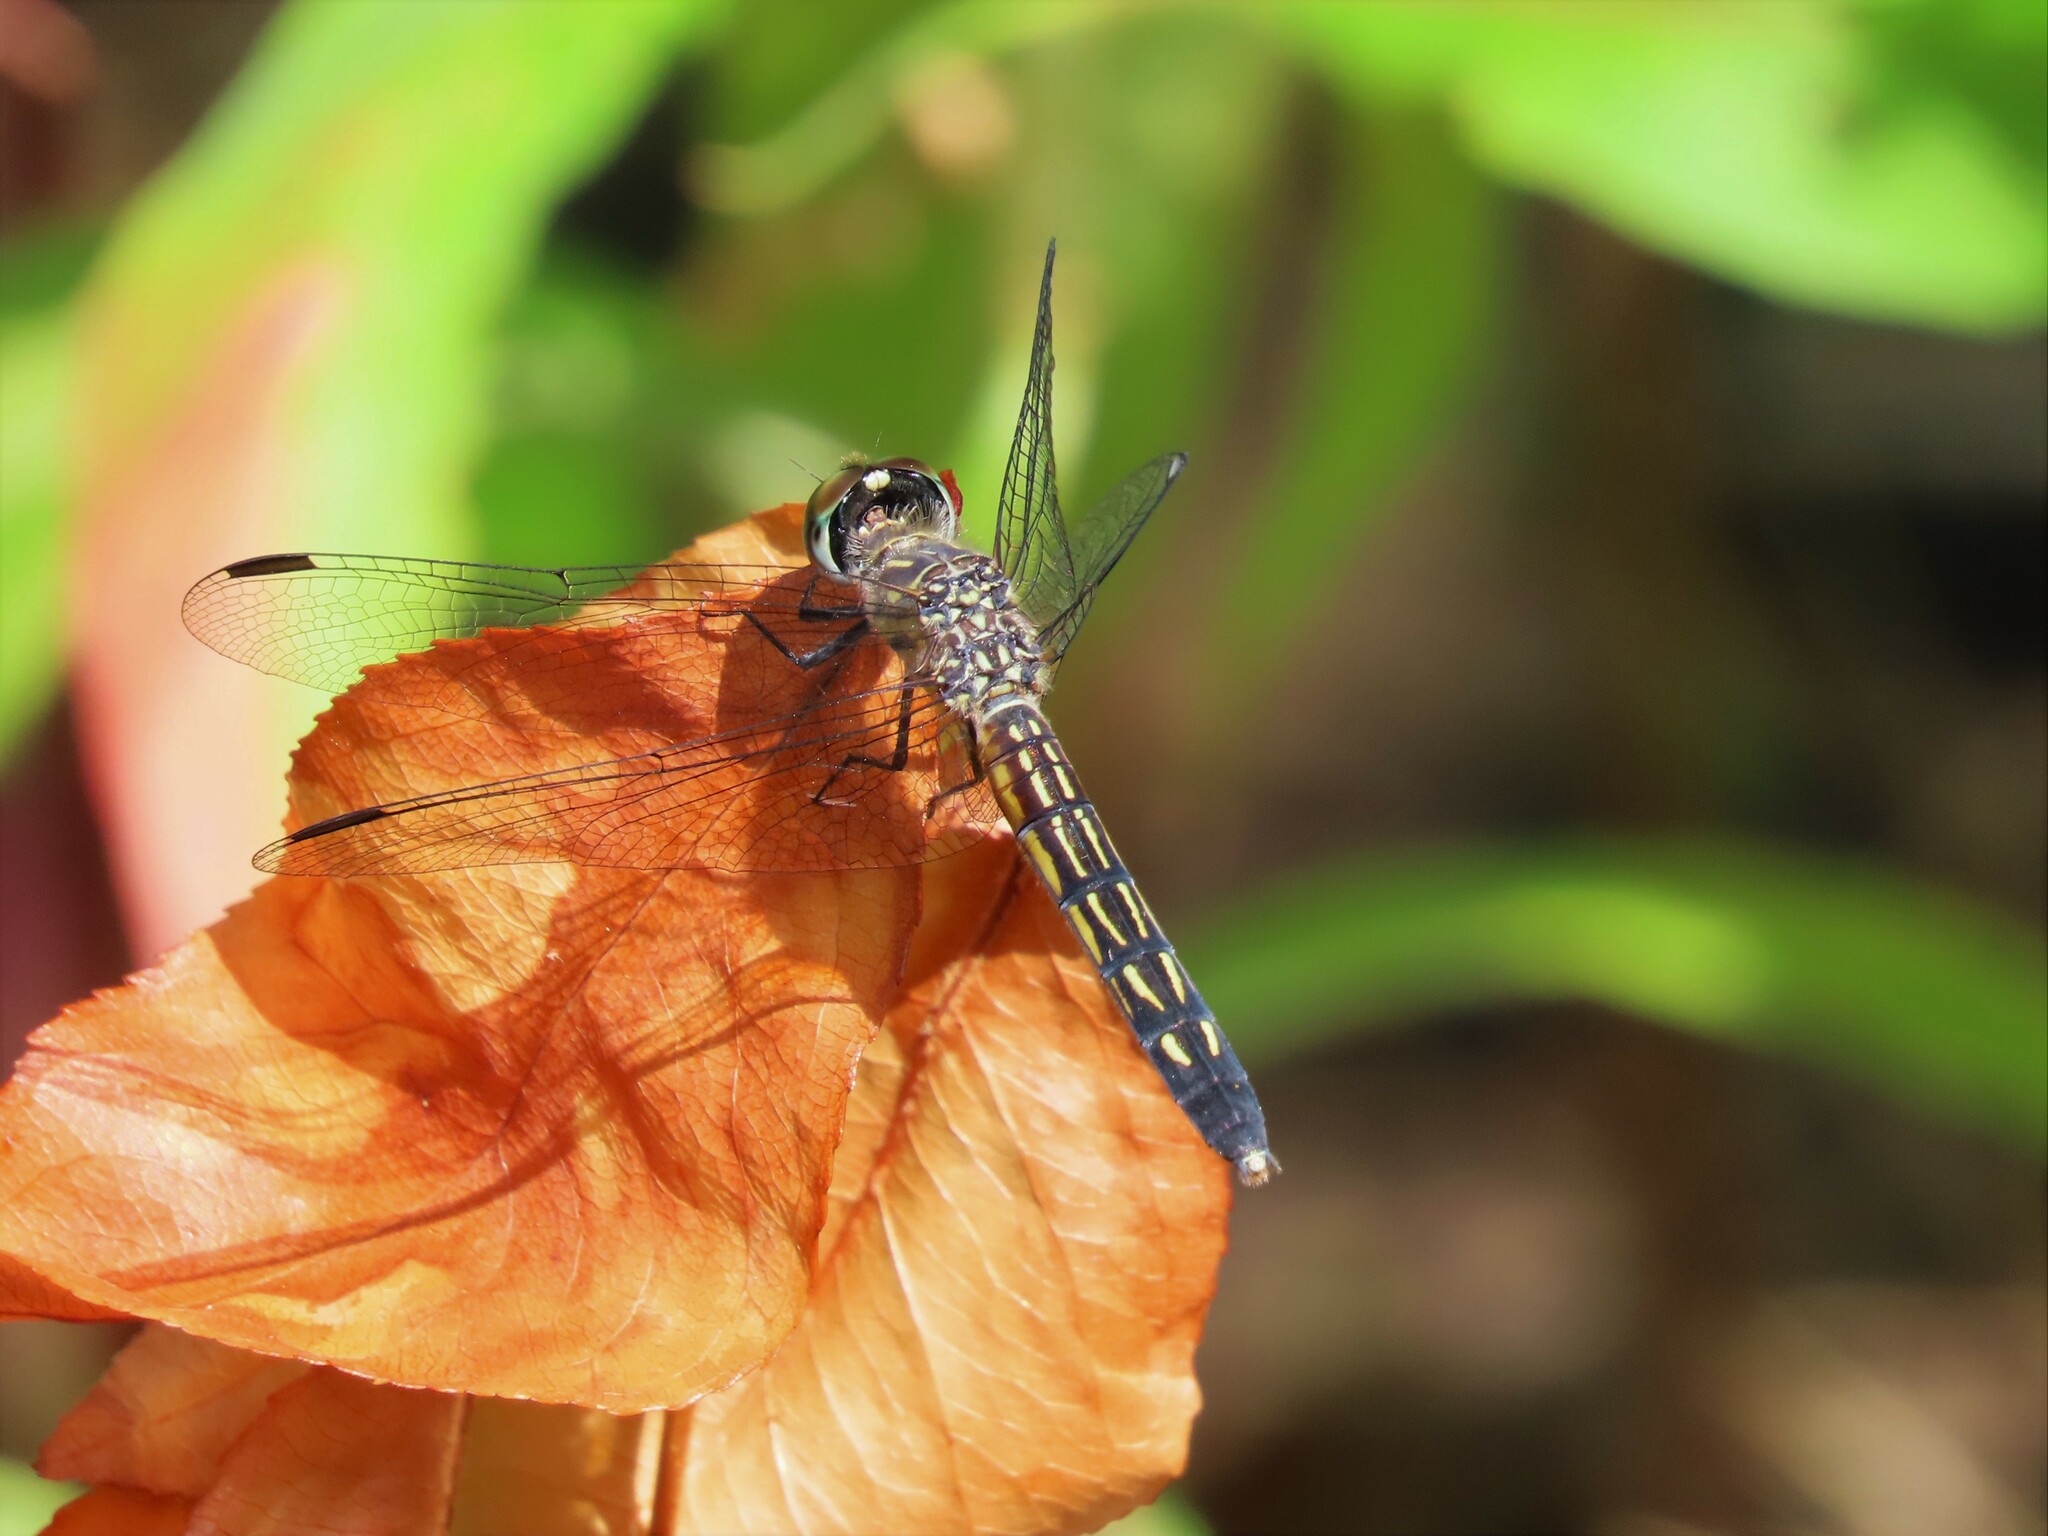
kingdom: Animalia
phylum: Arthropoda
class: Insecta
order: Odonata
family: Libellulidae
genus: Pachydiplax
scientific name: Pachydiplax longipennis
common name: Blue dasher
